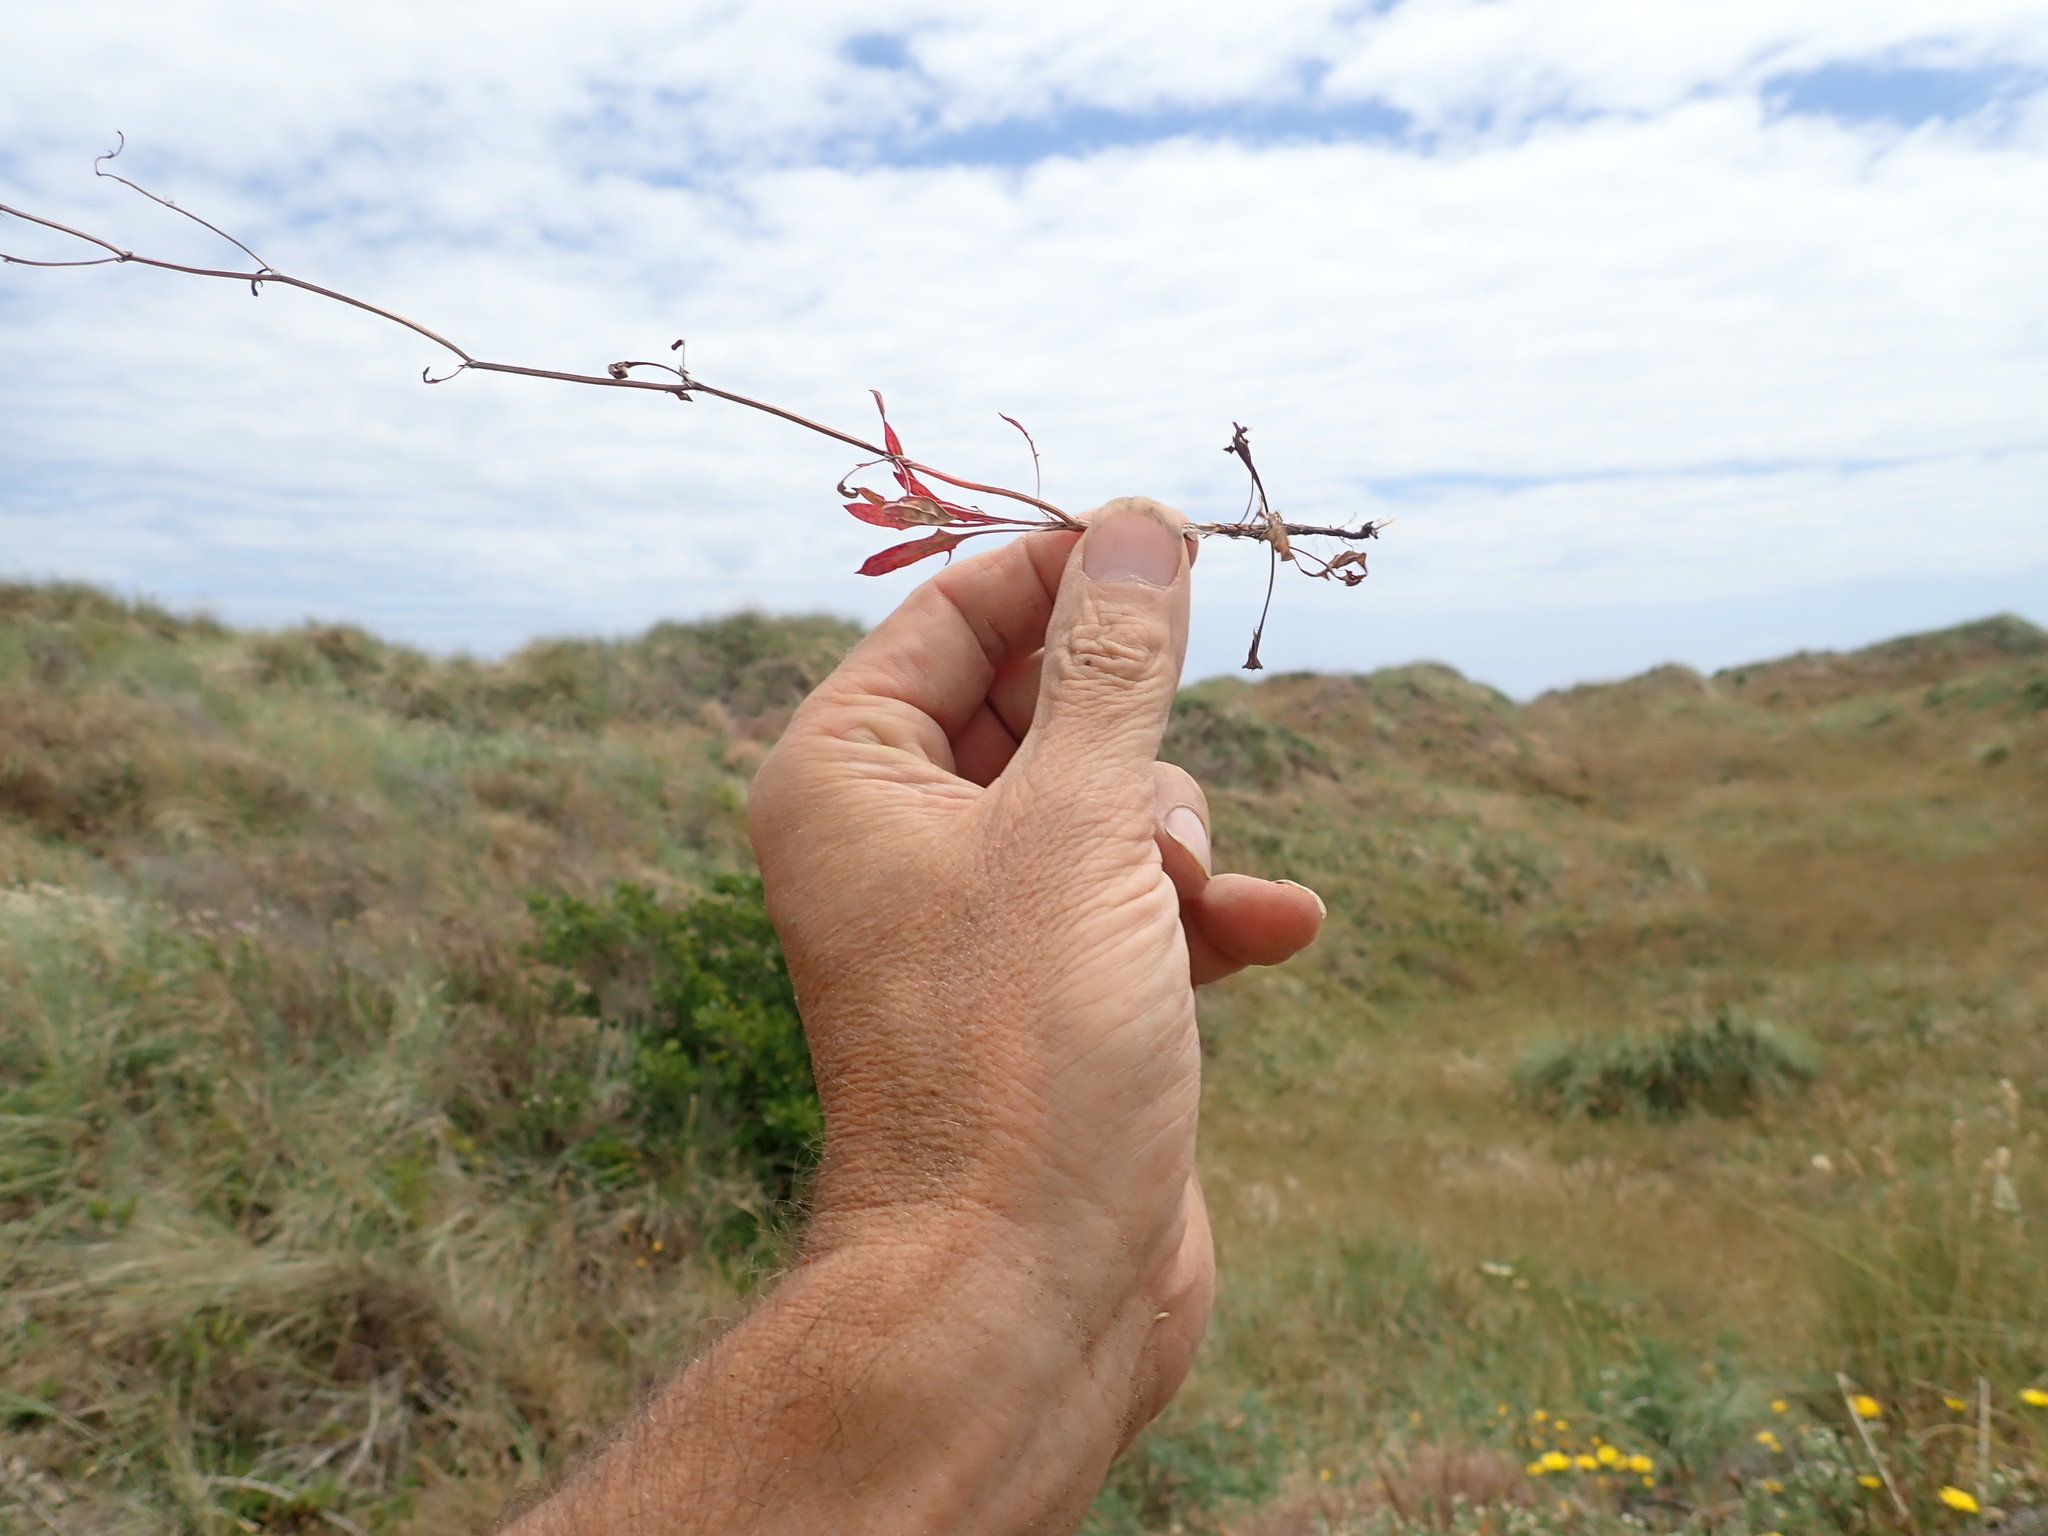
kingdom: Plantae
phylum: Tracheophyta
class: Magnoliopsida
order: Caryophyllales
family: Polygonaceae
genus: Rumex
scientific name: Rumex acetosella
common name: Common sheep sorrel
